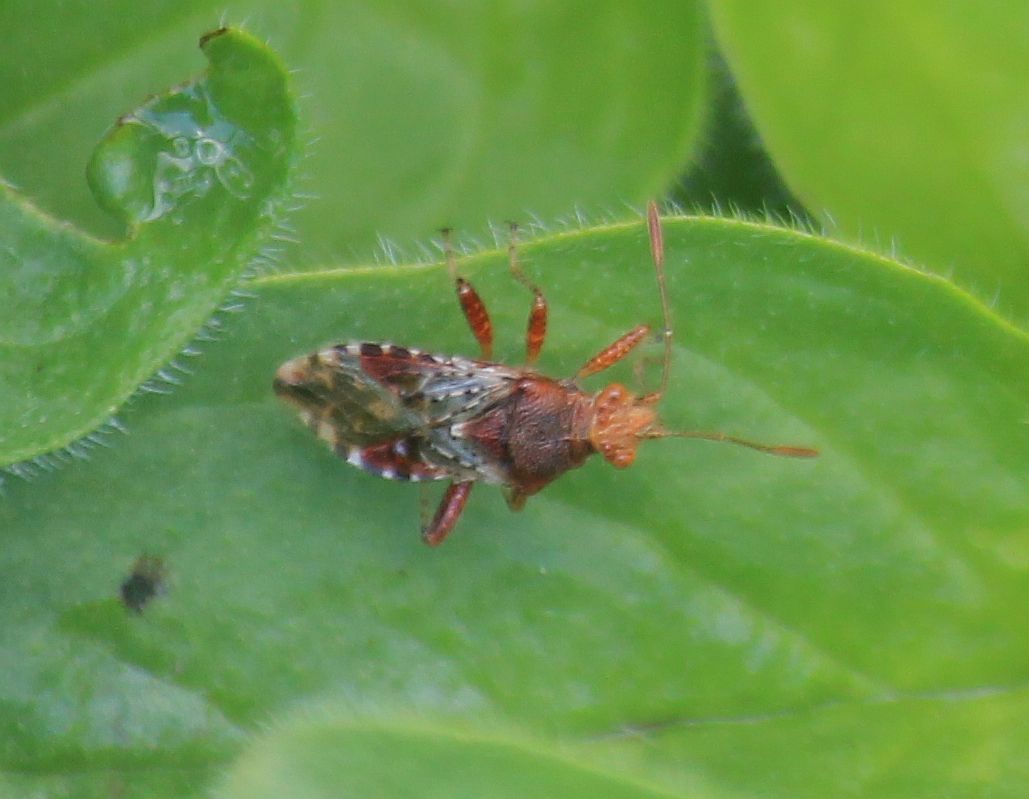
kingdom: Animalia
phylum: Arthropoda
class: Insecta
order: Hemiptera
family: Rhopalidae
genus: Rhopalus
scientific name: Rhopalus subrufus
